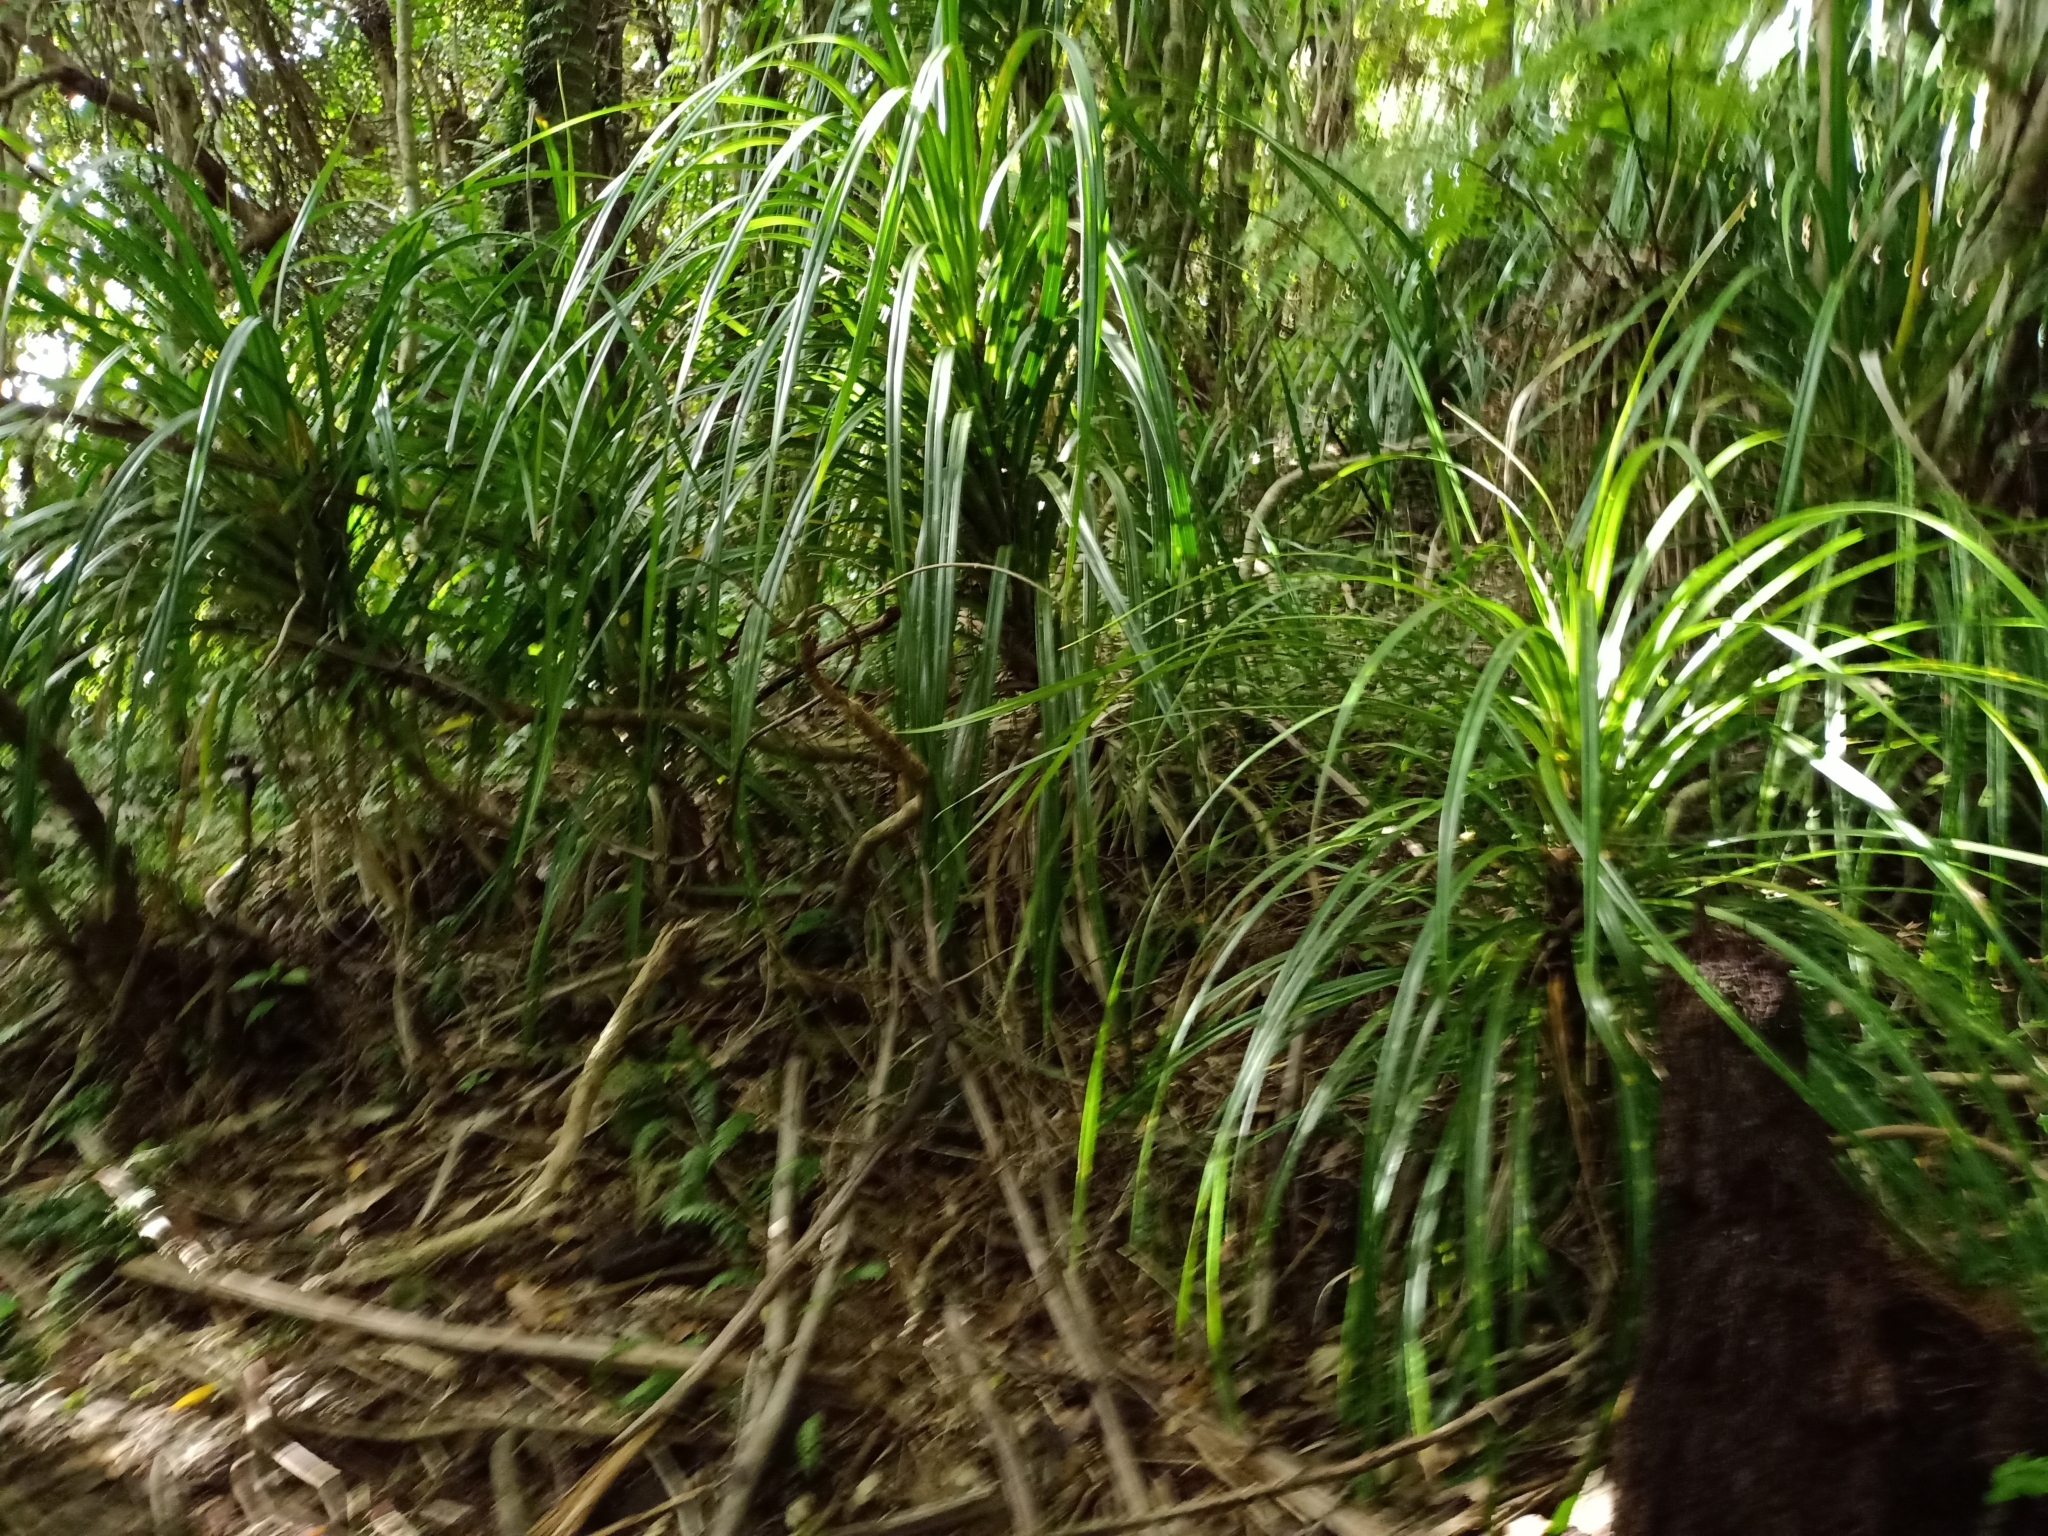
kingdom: Plantae
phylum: Tracheophyta
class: Liliopsida
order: Pandanales
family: Pandanaceae
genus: Freycinetia
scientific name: Freycinetia banksii
